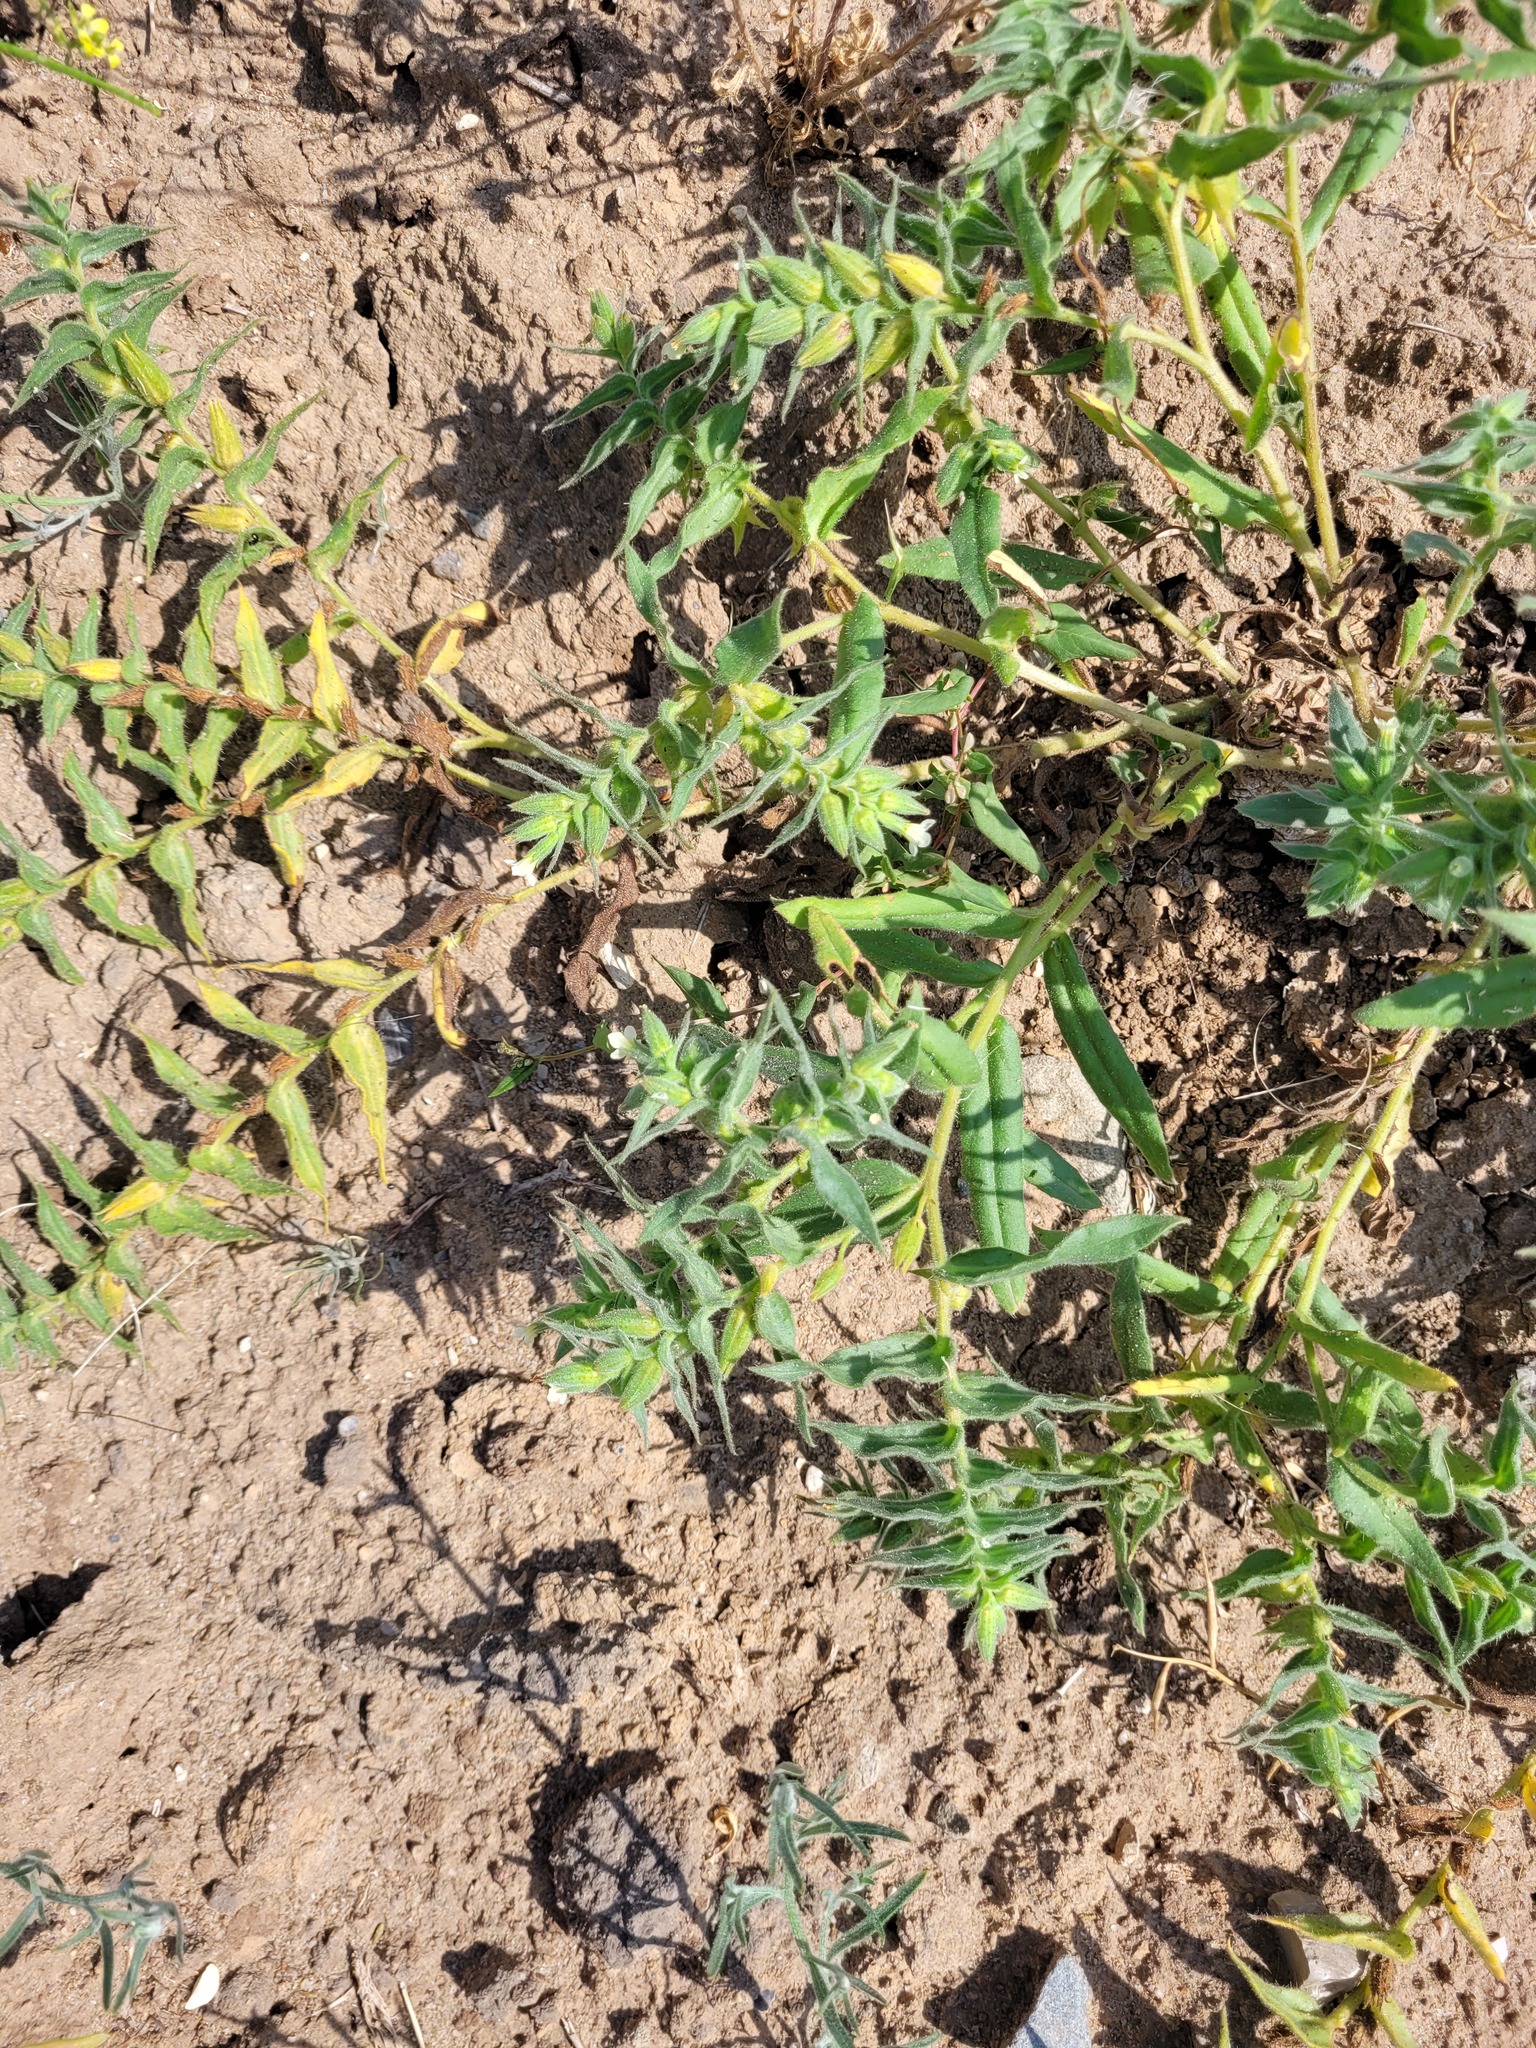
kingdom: Plantae
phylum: Tracheophyta
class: Magnoliopsida
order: Boraginales
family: Boraginaceae
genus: Nonea
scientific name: Nonea lutea
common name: Yellow nonea
